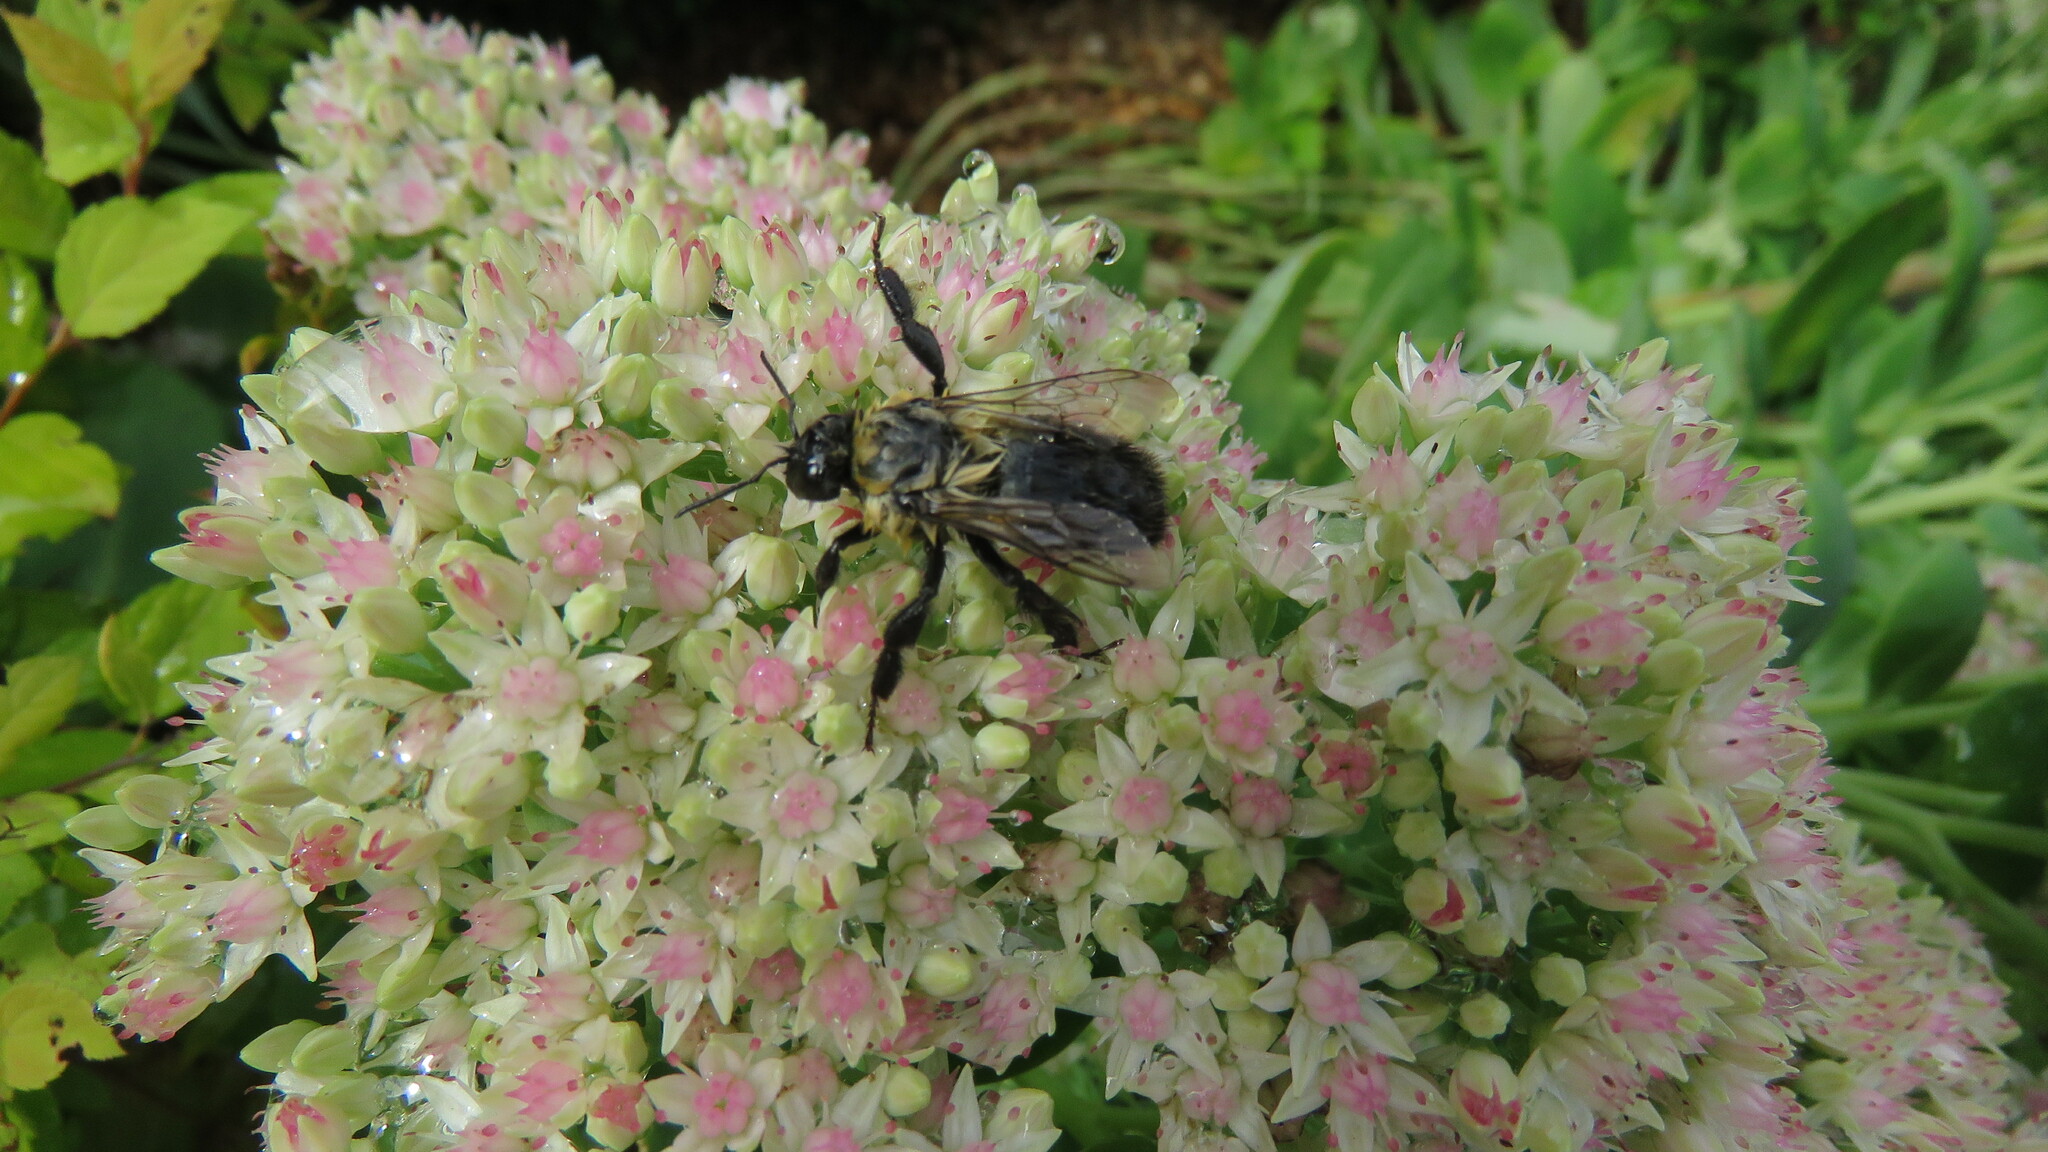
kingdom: Animalia
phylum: Arthropoda
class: Insecta
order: Hymenoptera
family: Apidae
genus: Bombus
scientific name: Bombus impatiens
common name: Common eastern bumble bee
